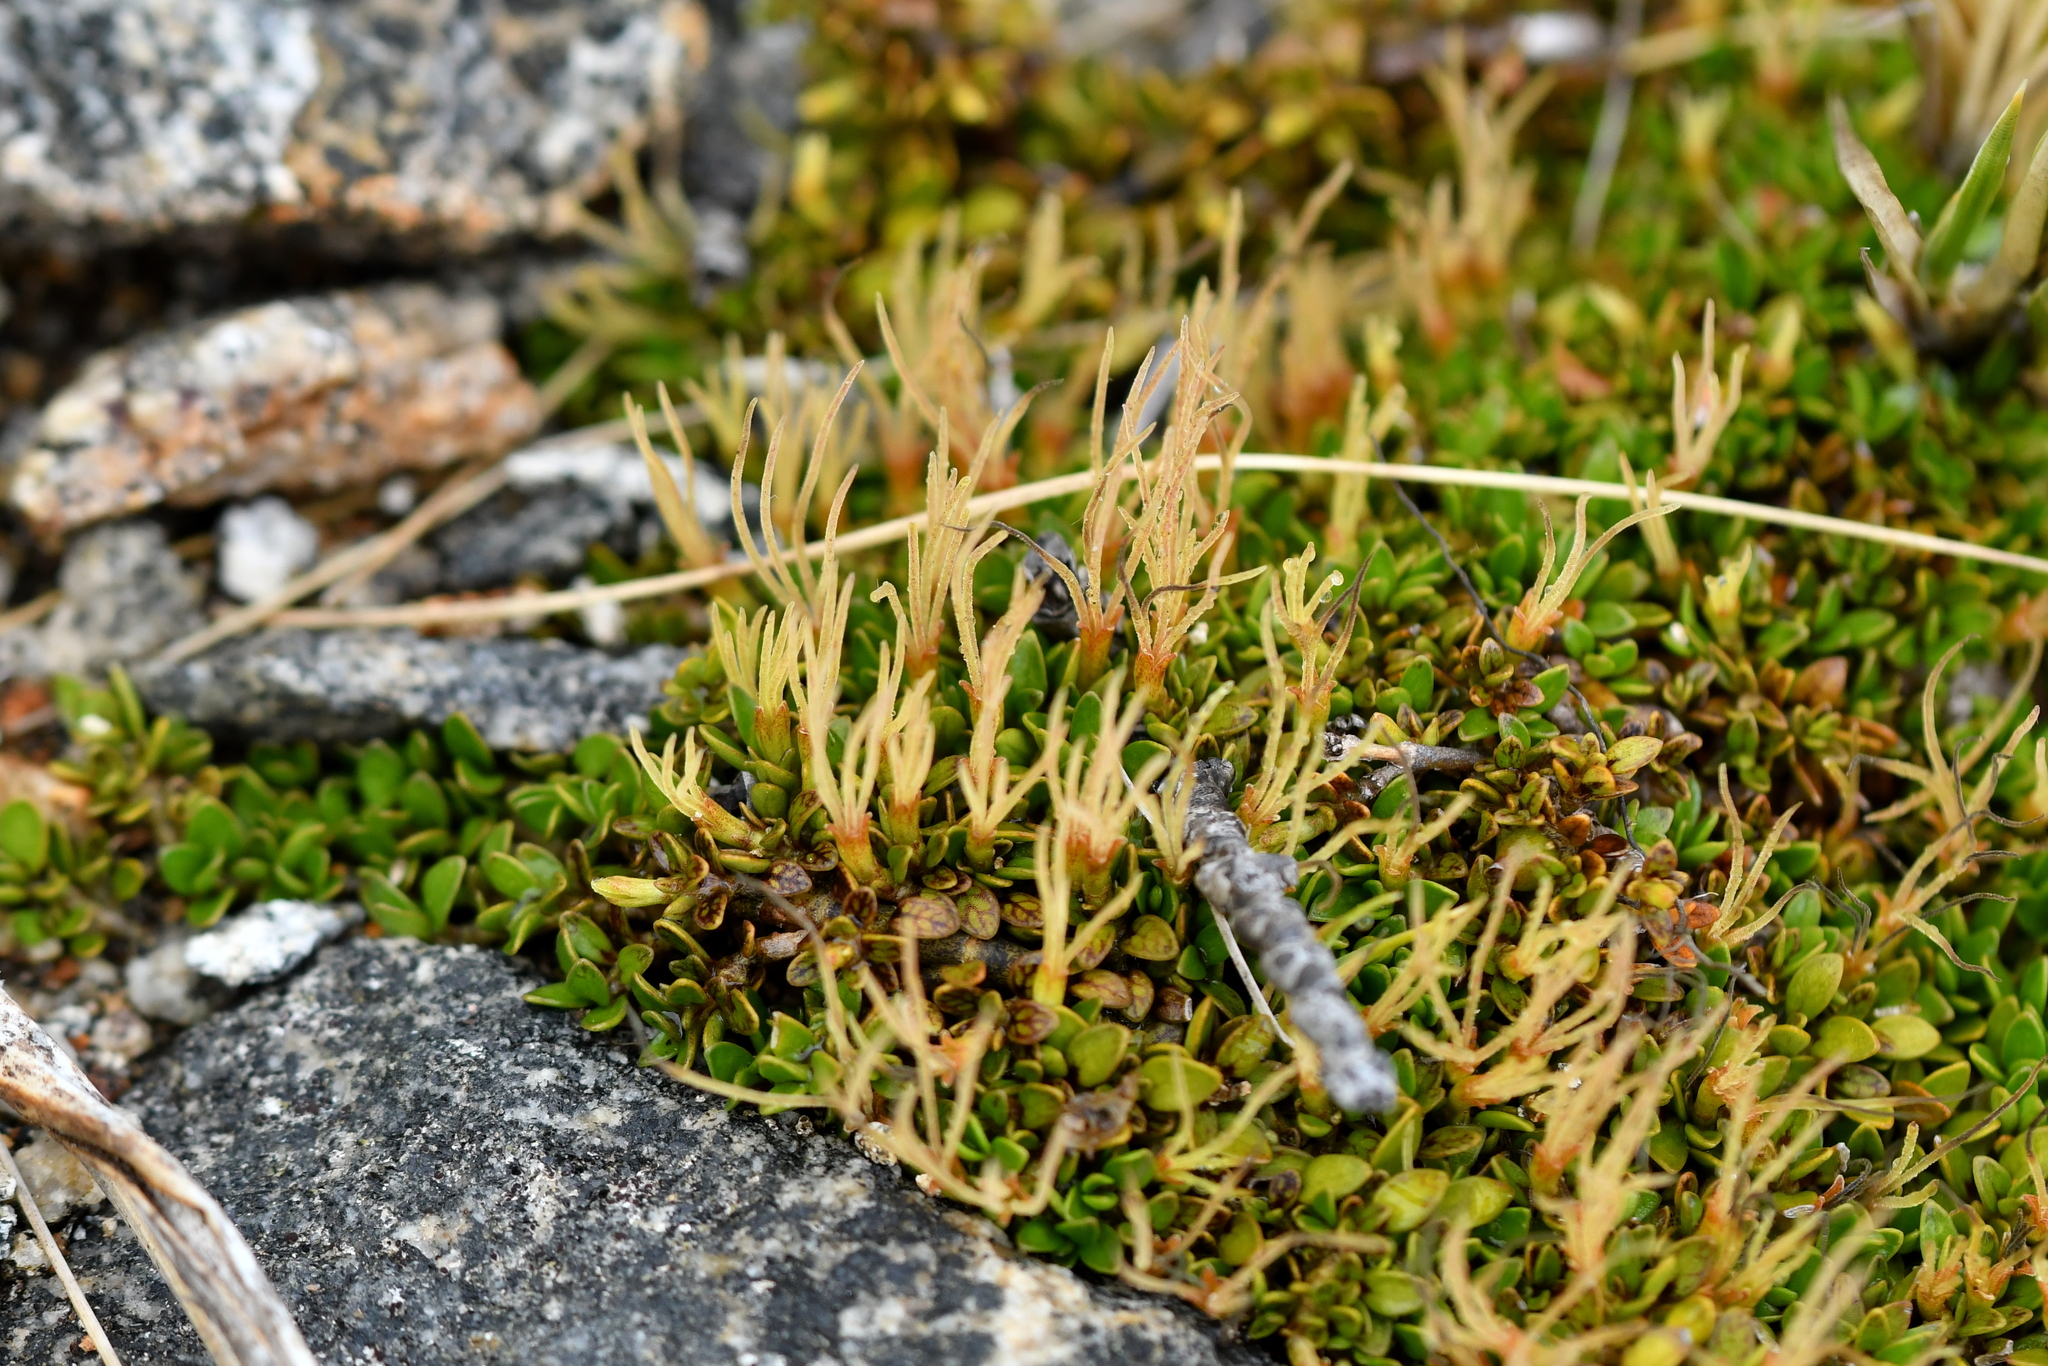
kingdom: Plantae
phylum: Tracheophyta
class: Magnoliopsida
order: Gentianales
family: Rubiaceae
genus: Coprosma
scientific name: Coprosma perpusilla
